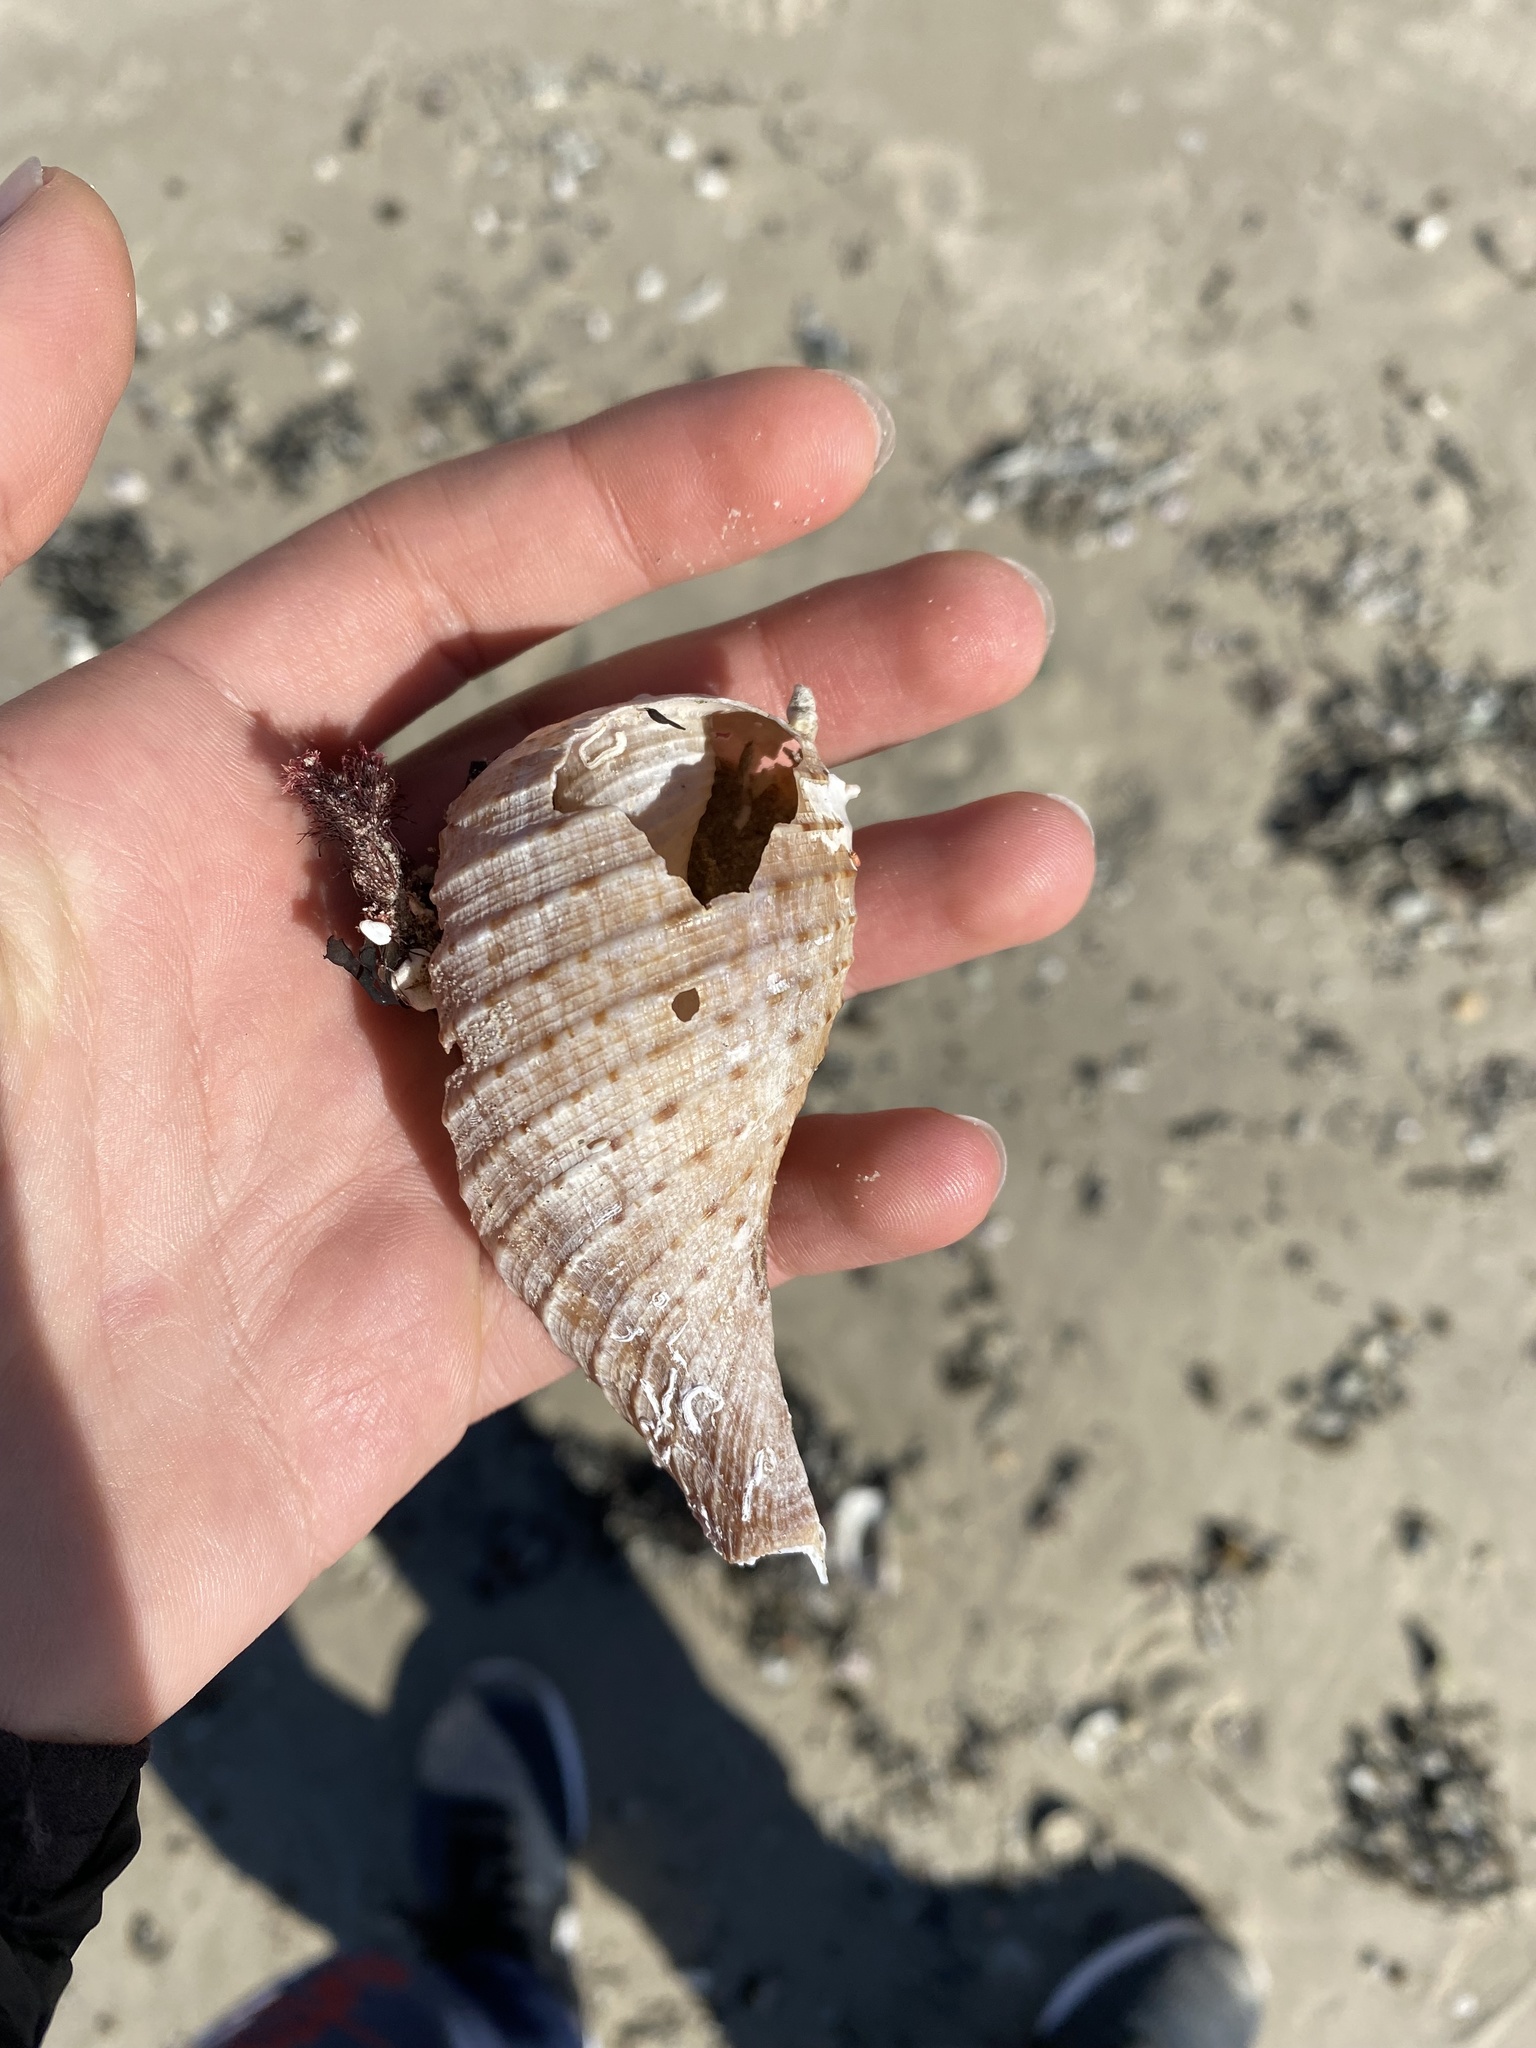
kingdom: Animalia
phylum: Mollusca
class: Gastropoda
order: Littorinimorpha
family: Ficidae
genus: Ficus
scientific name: Ficus ventricosa
